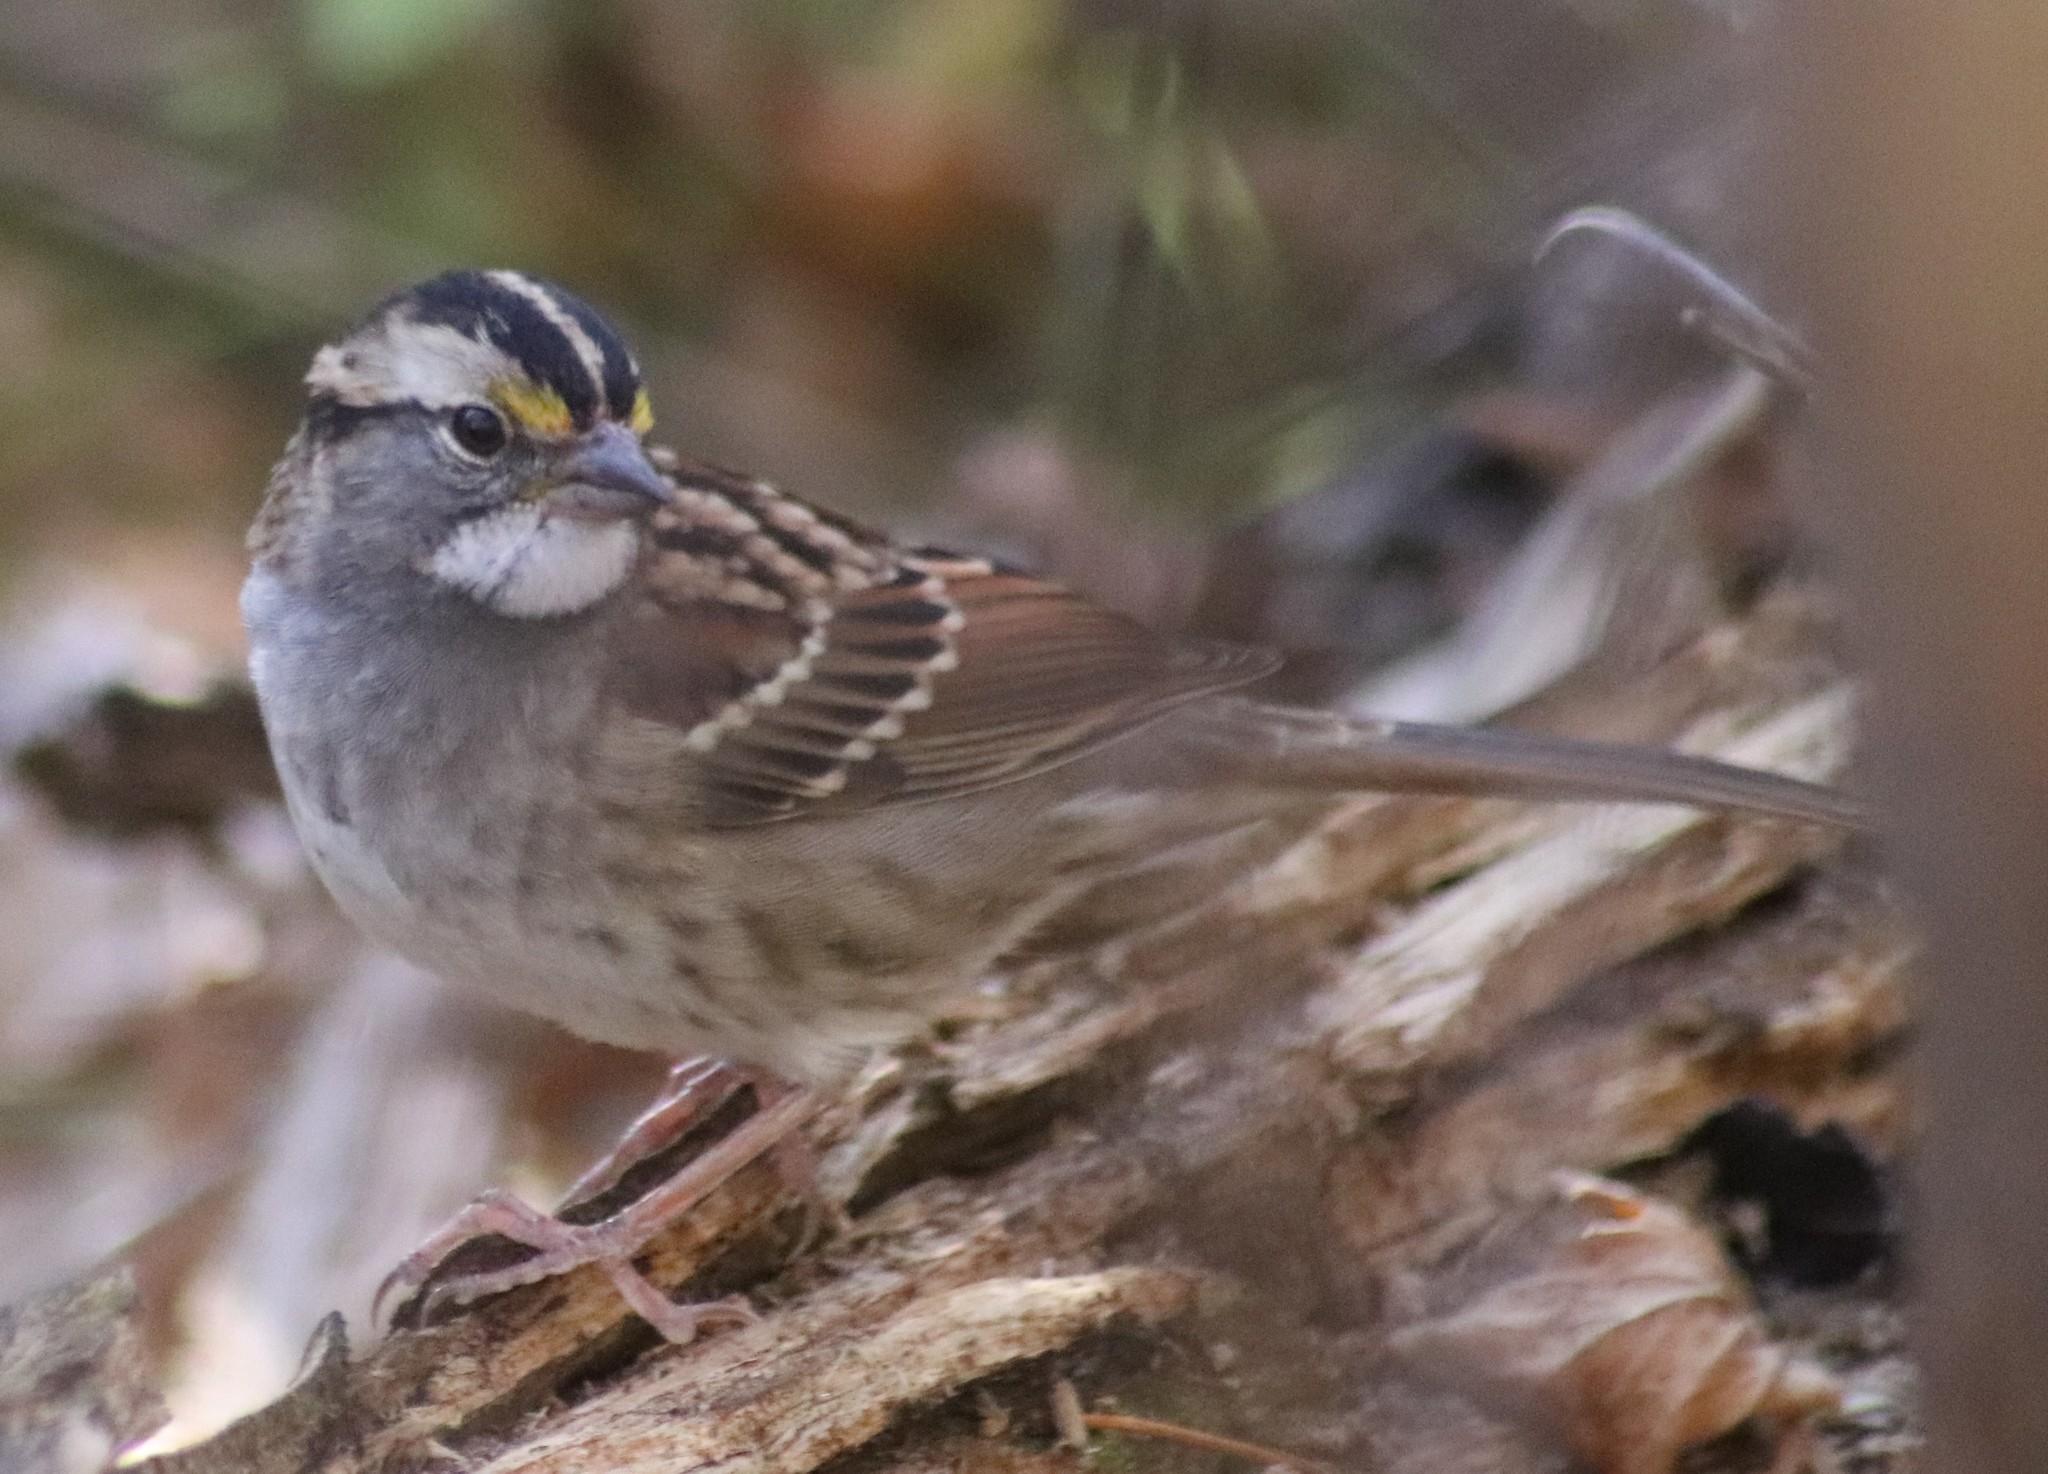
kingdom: Animalia
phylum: Chordata
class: Aves
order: Passeriformes
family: Passerellidae
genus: Zonotrichia
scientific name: Zonotrichia albicollis
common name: White-throated sparrow
